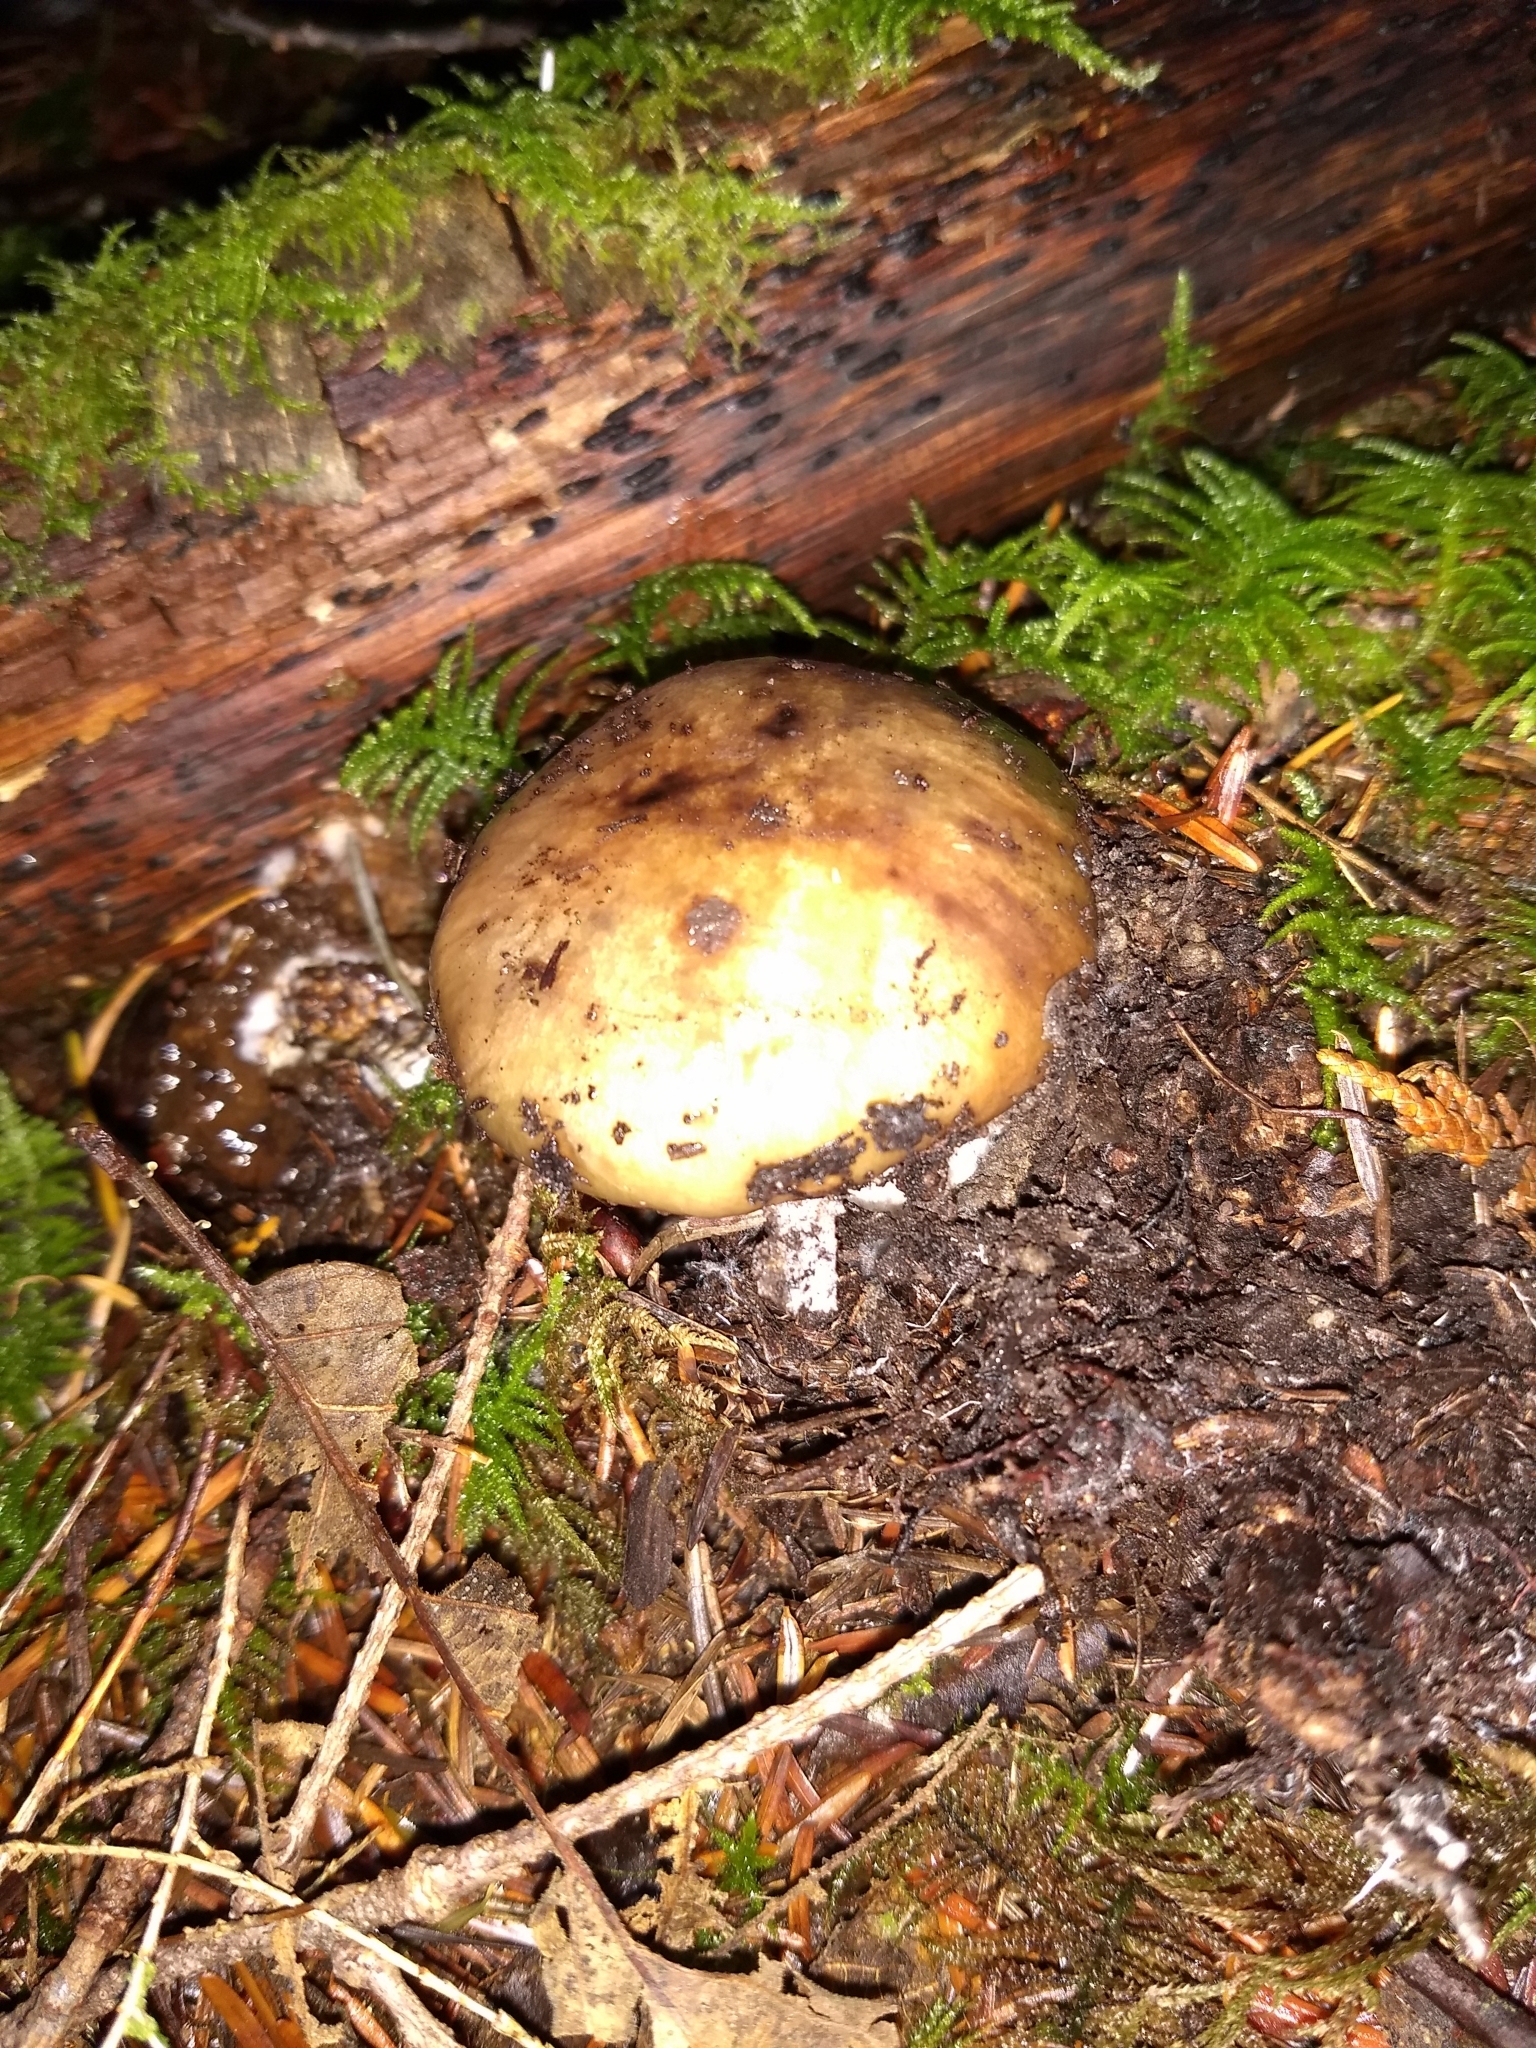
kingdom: Fungi
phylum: Basidiomycota
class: Agaricomycetes
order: Boletales
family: Gomphidiaceae
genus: Gomphidius
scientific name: Gomphidius oregonensis
